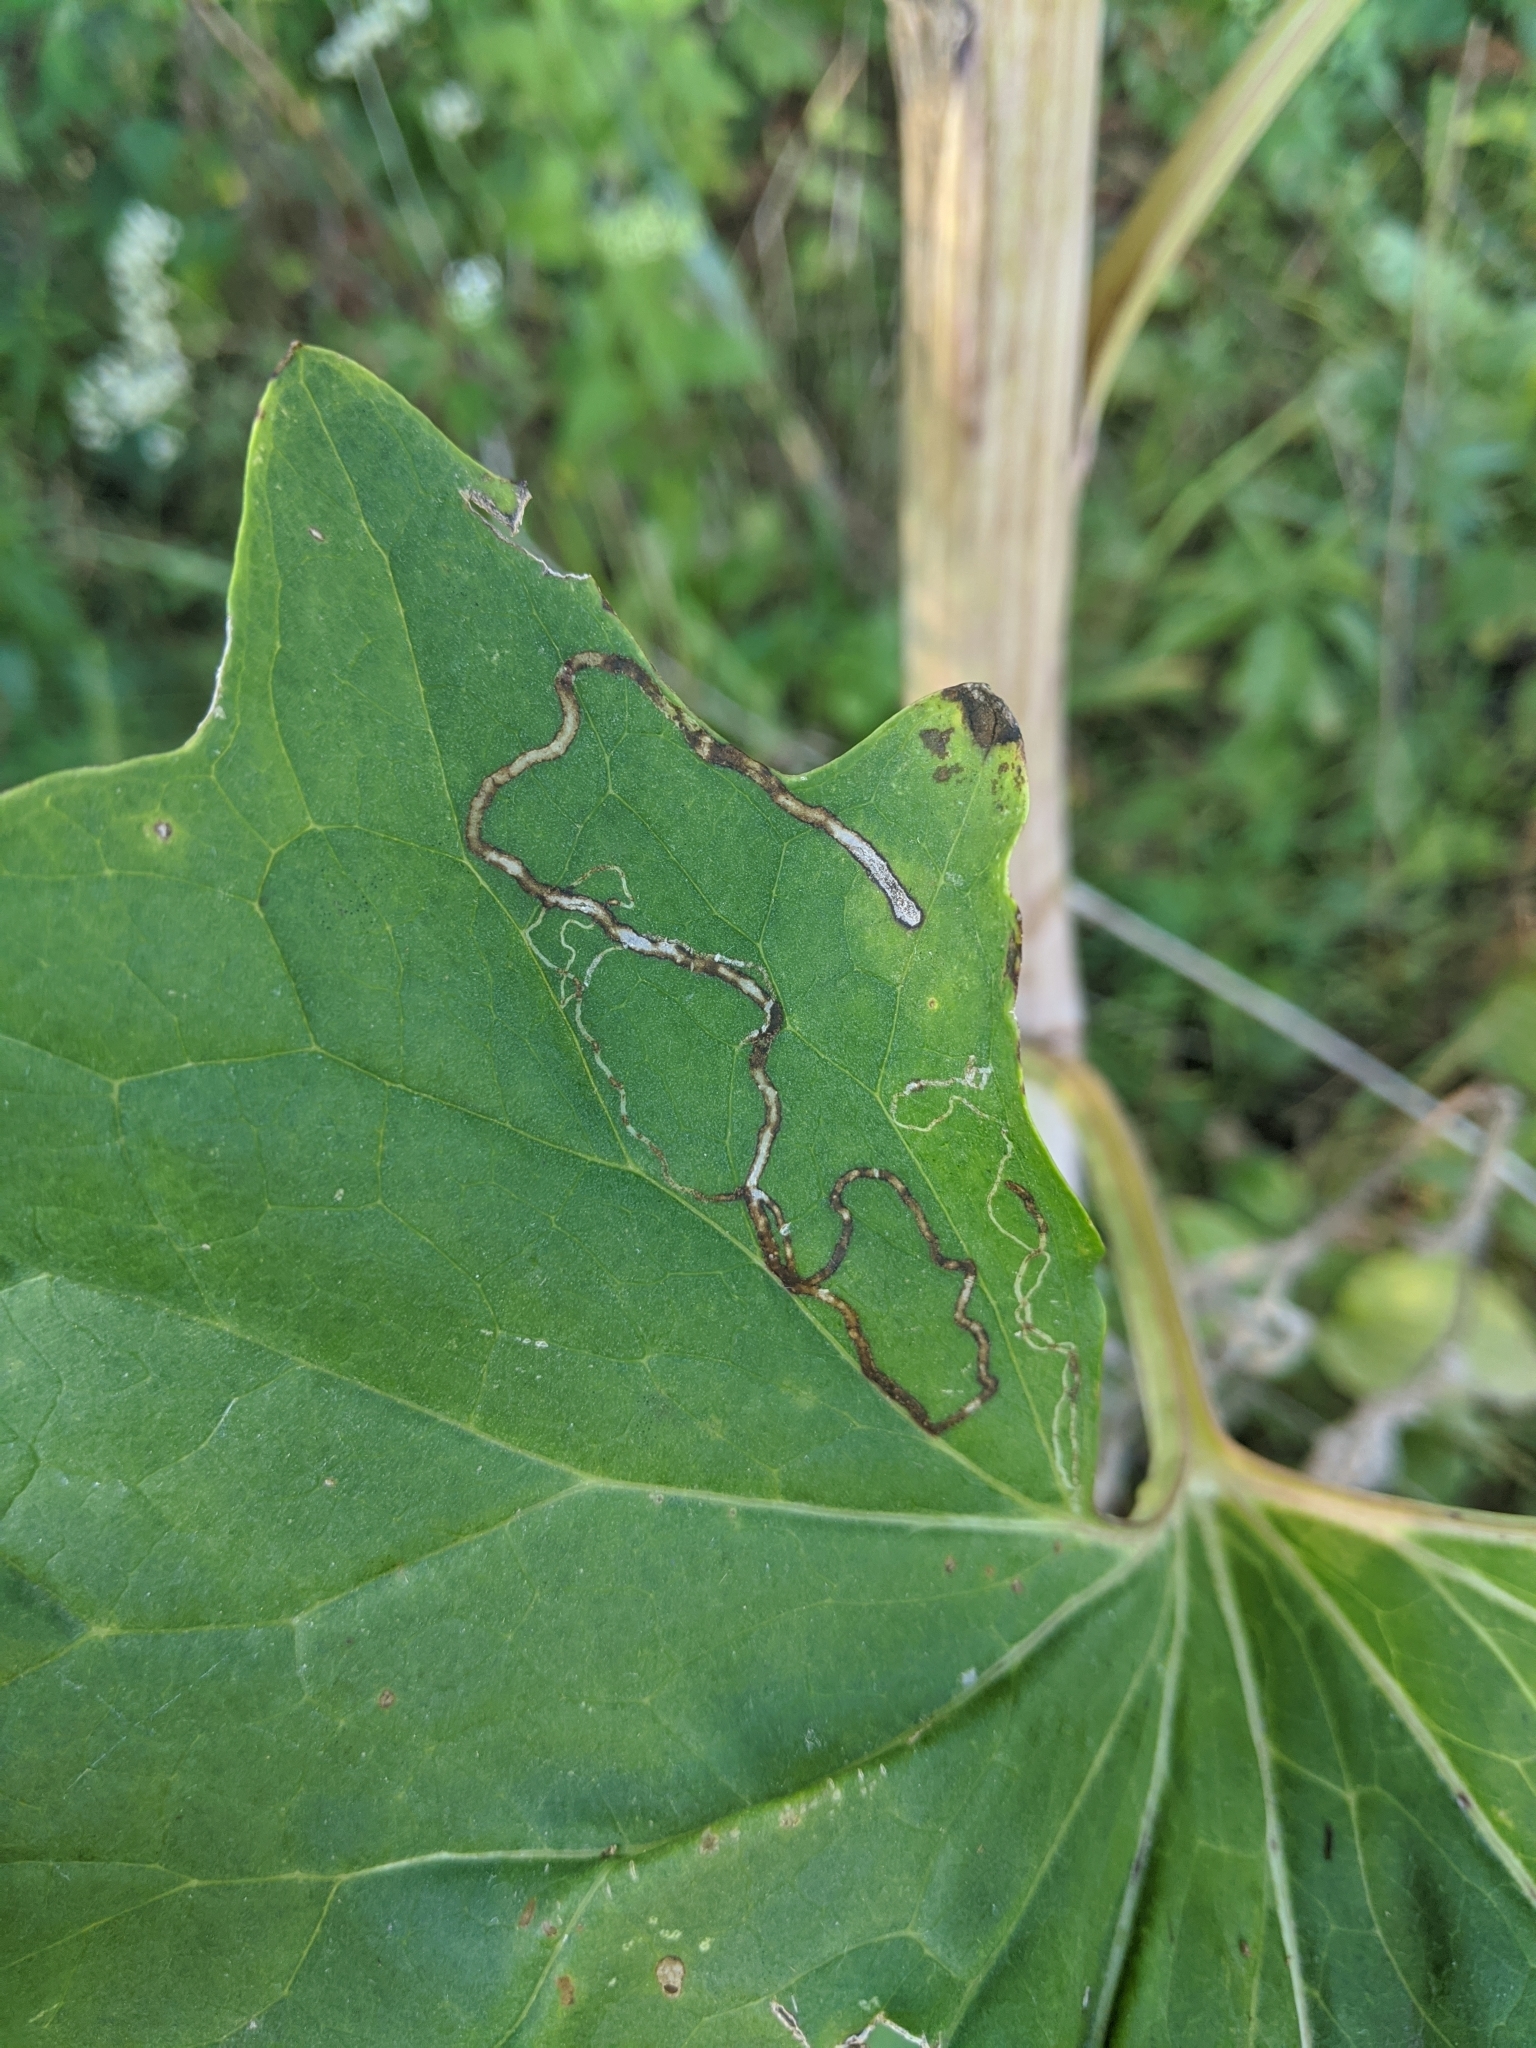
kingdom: Animalia
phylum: Arthropoda
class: Insecta
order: Lepidoptera
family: Gracillariidae
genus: Phyllocnistis
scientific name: Phyllocnistis insignis
